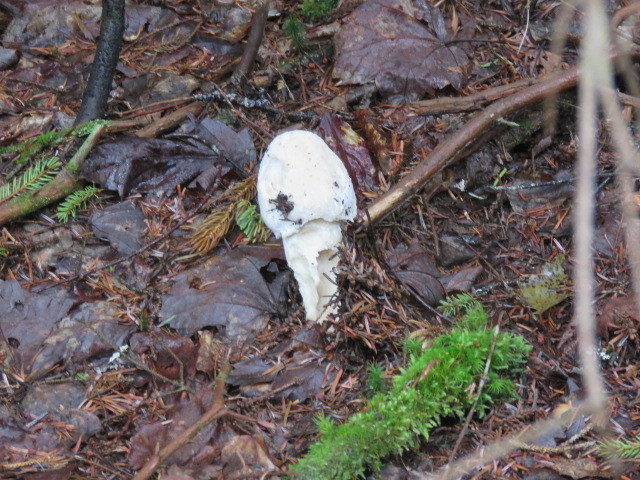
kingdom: Fungi
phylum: Ascomycota
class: Sordariomycetes
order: Hypocreales
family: Hypocreaceae
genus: Hypomyces
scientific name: Hypomyces hyalinus
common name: Amanita mold
